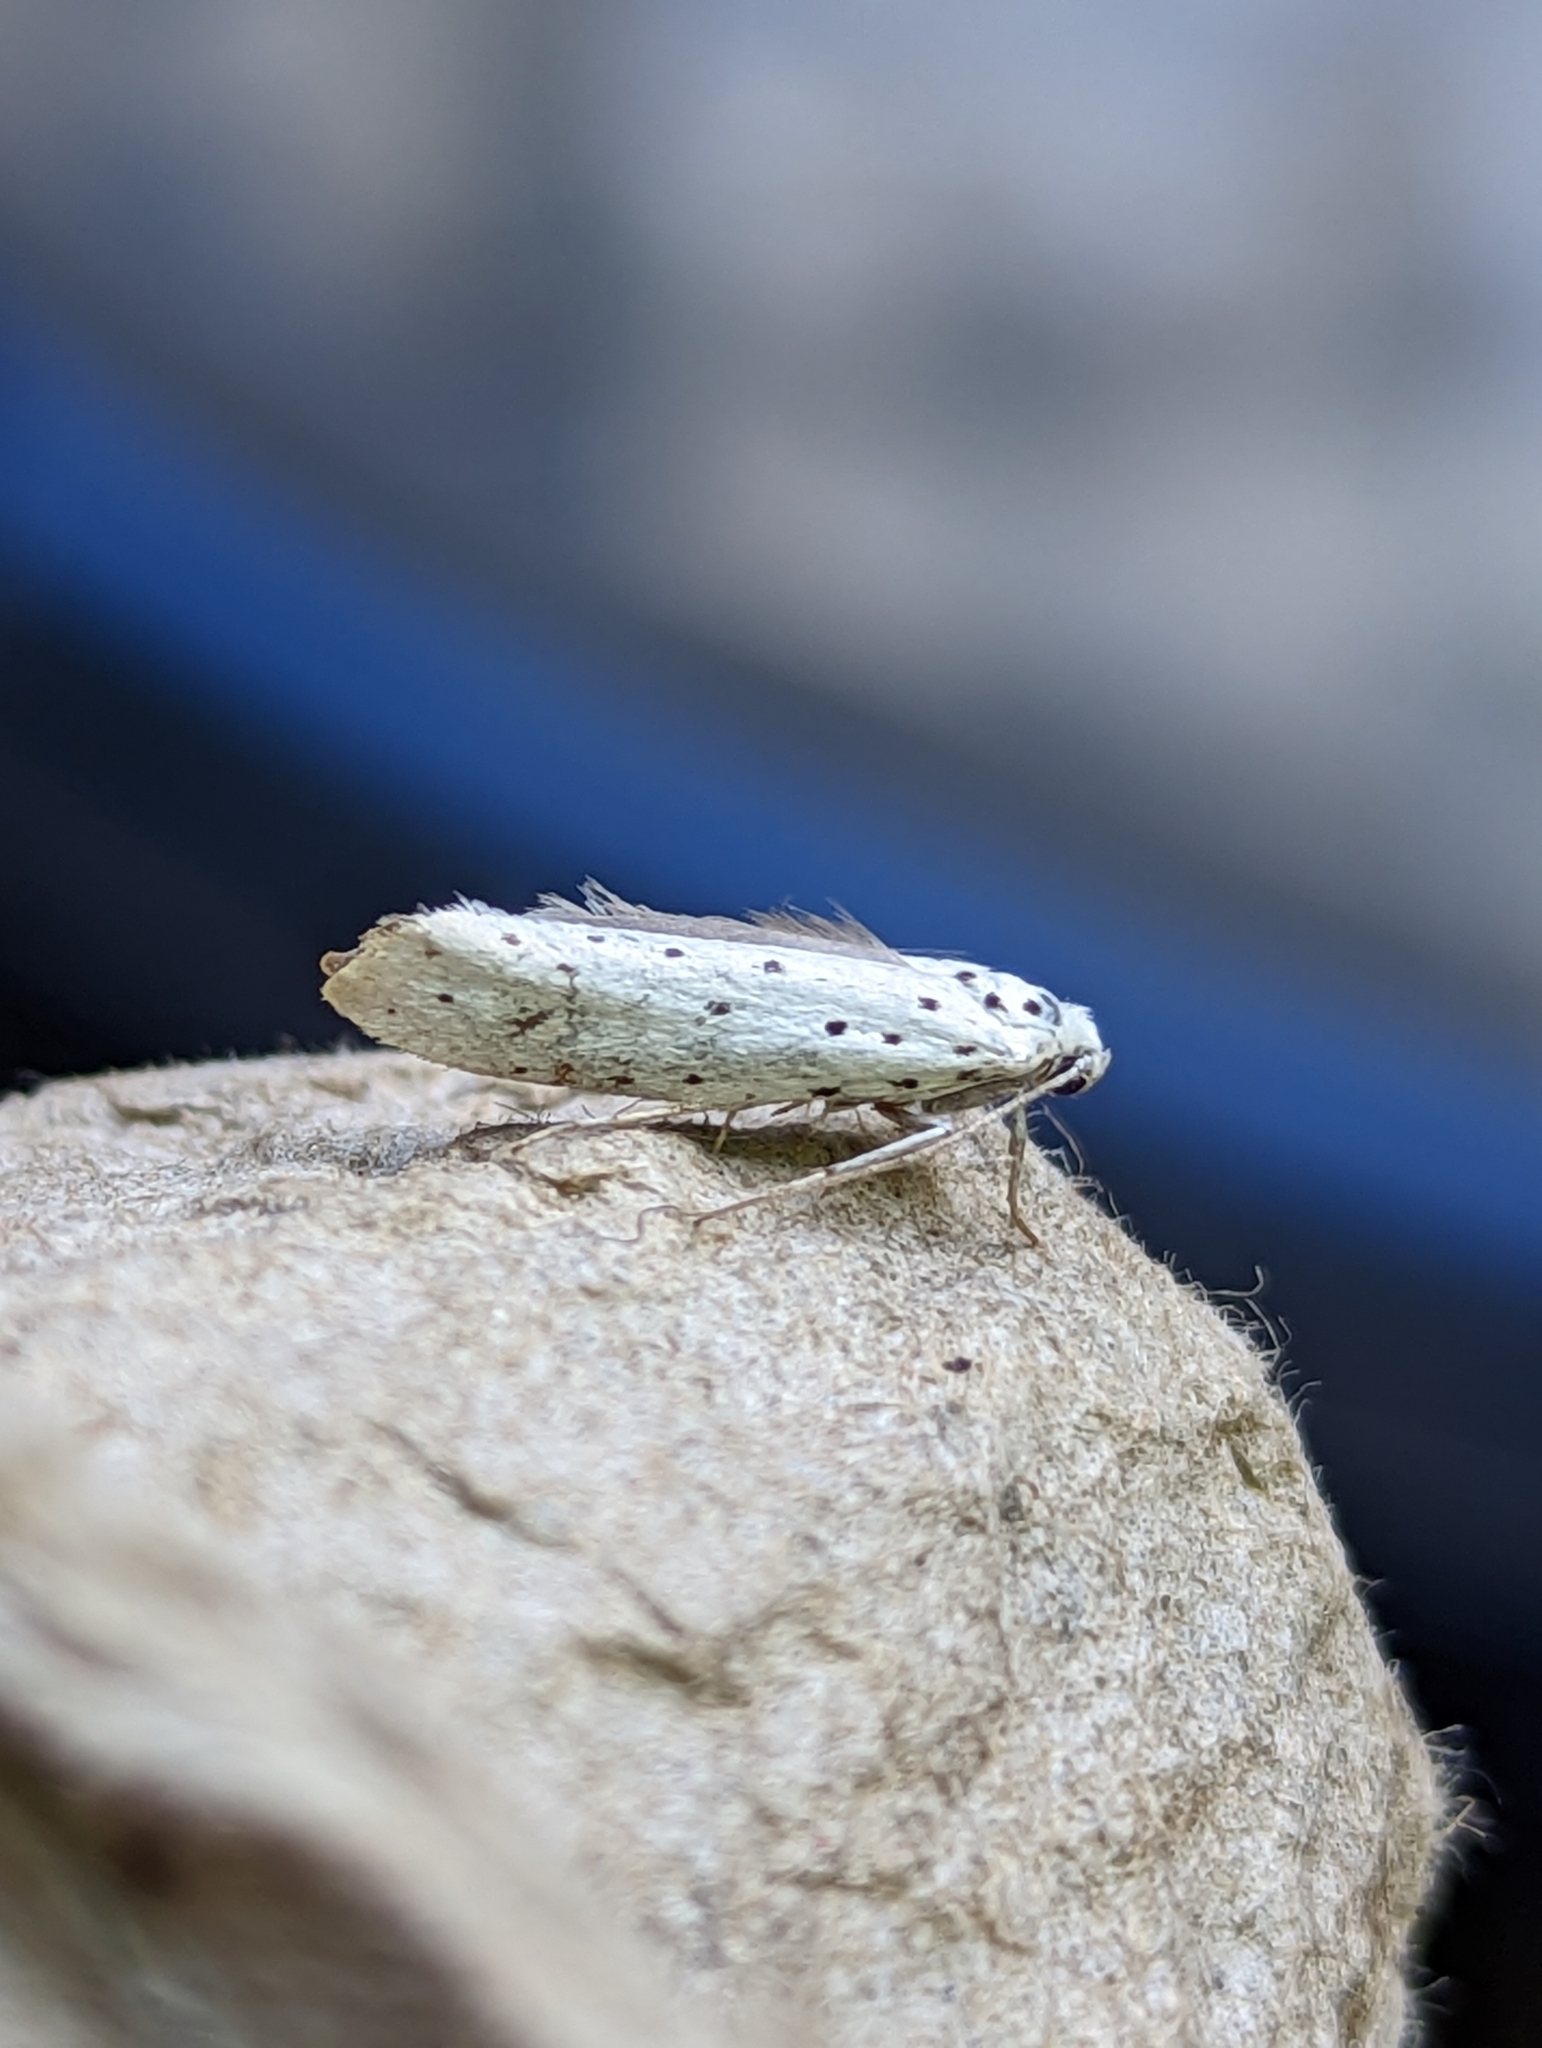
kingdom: Animalia
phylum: Arthropoda
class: Insecta
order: Lepidoptera
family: Yponomeutidae
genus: Yponomeuta
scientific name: Yponomeuta
